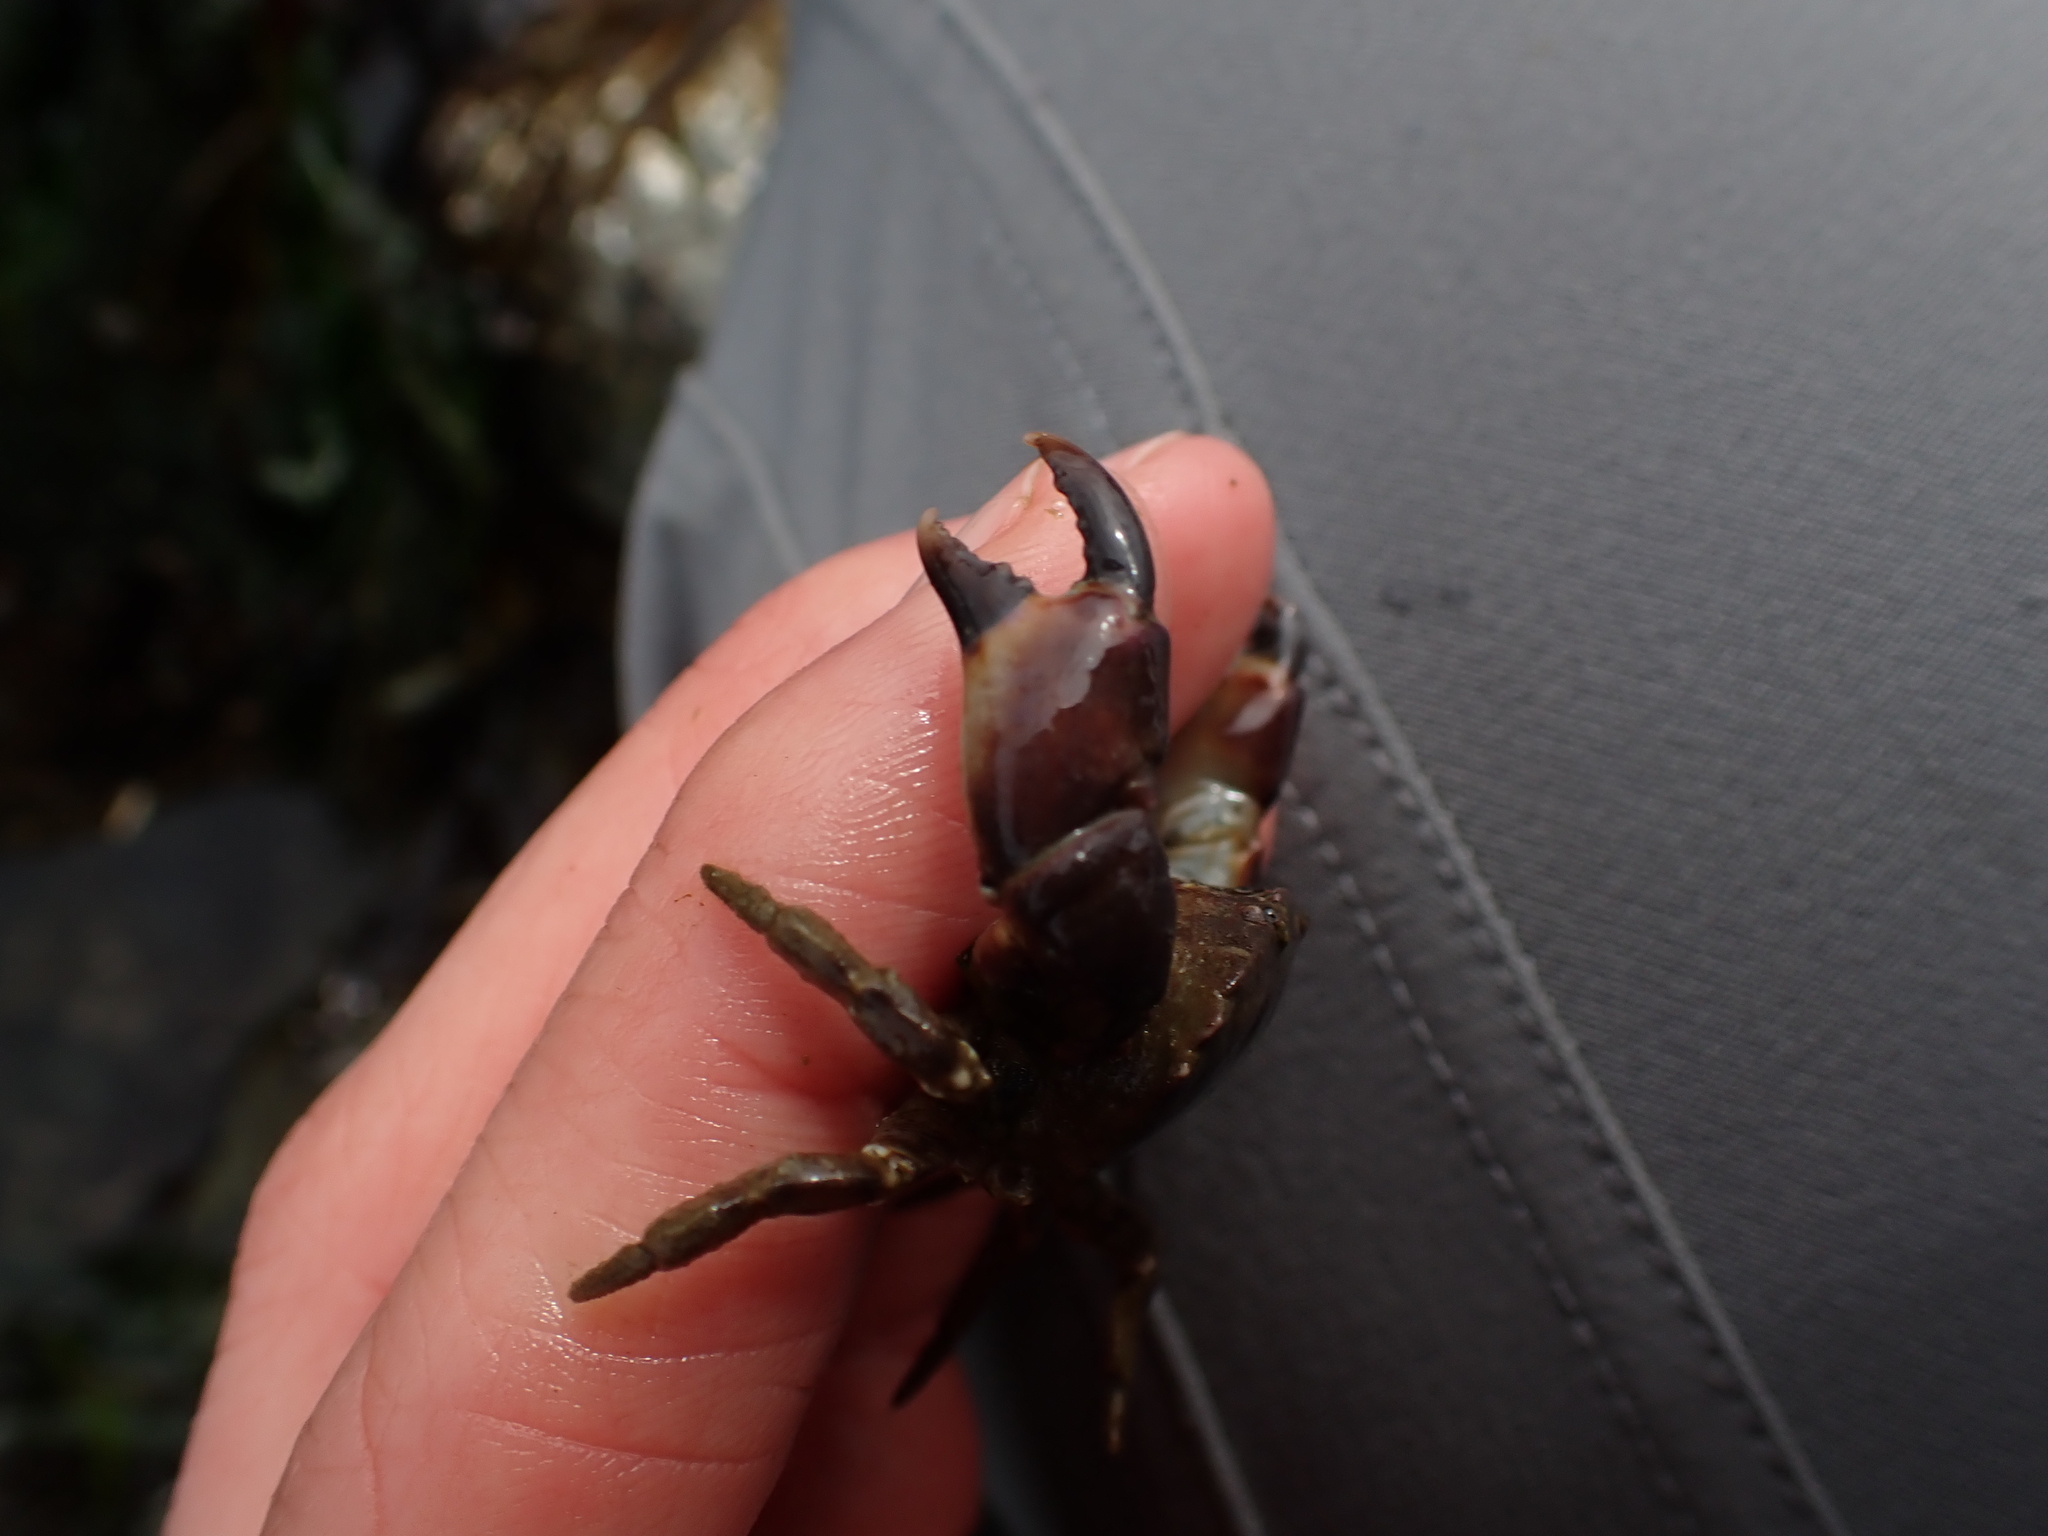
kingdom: Animalia
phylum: Arthropoda
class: Malacostraca
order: Decapoda
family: Panopeidae
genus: Lophopanopeus
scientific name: Lophopanopeus bellus
